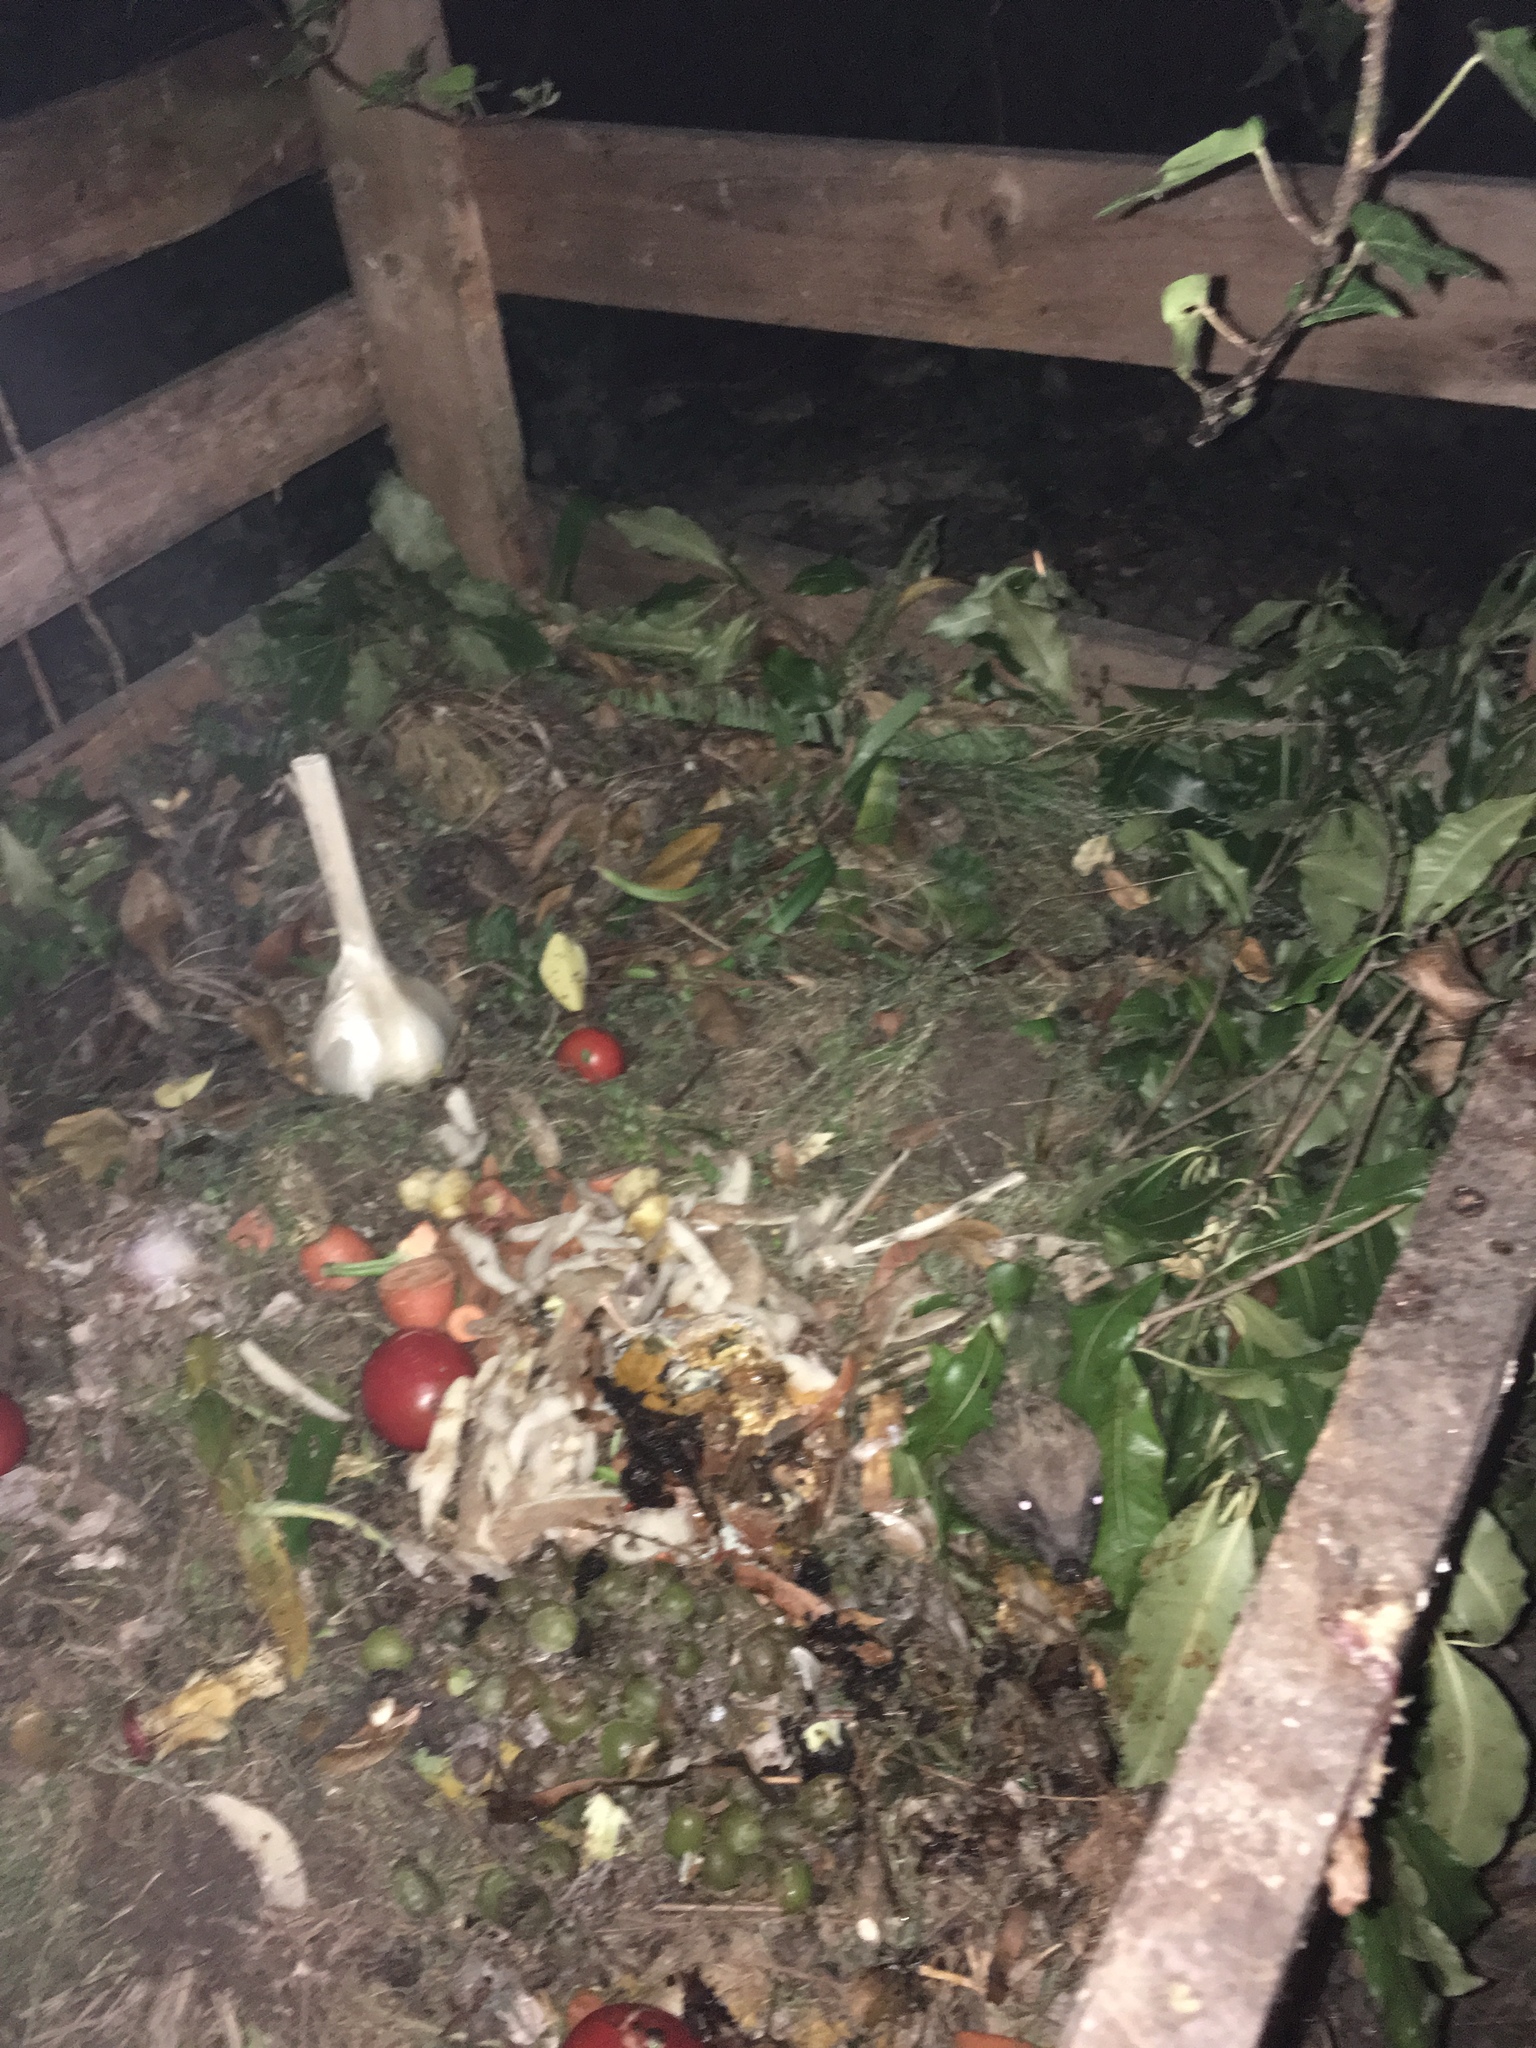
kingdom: Animalia
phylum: Chordata
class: Mammalia
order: Erinaceomorpha
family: Erinaceidae
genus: Erinaceus
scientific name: Erinaceus europaeus
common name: West european hedgehog
